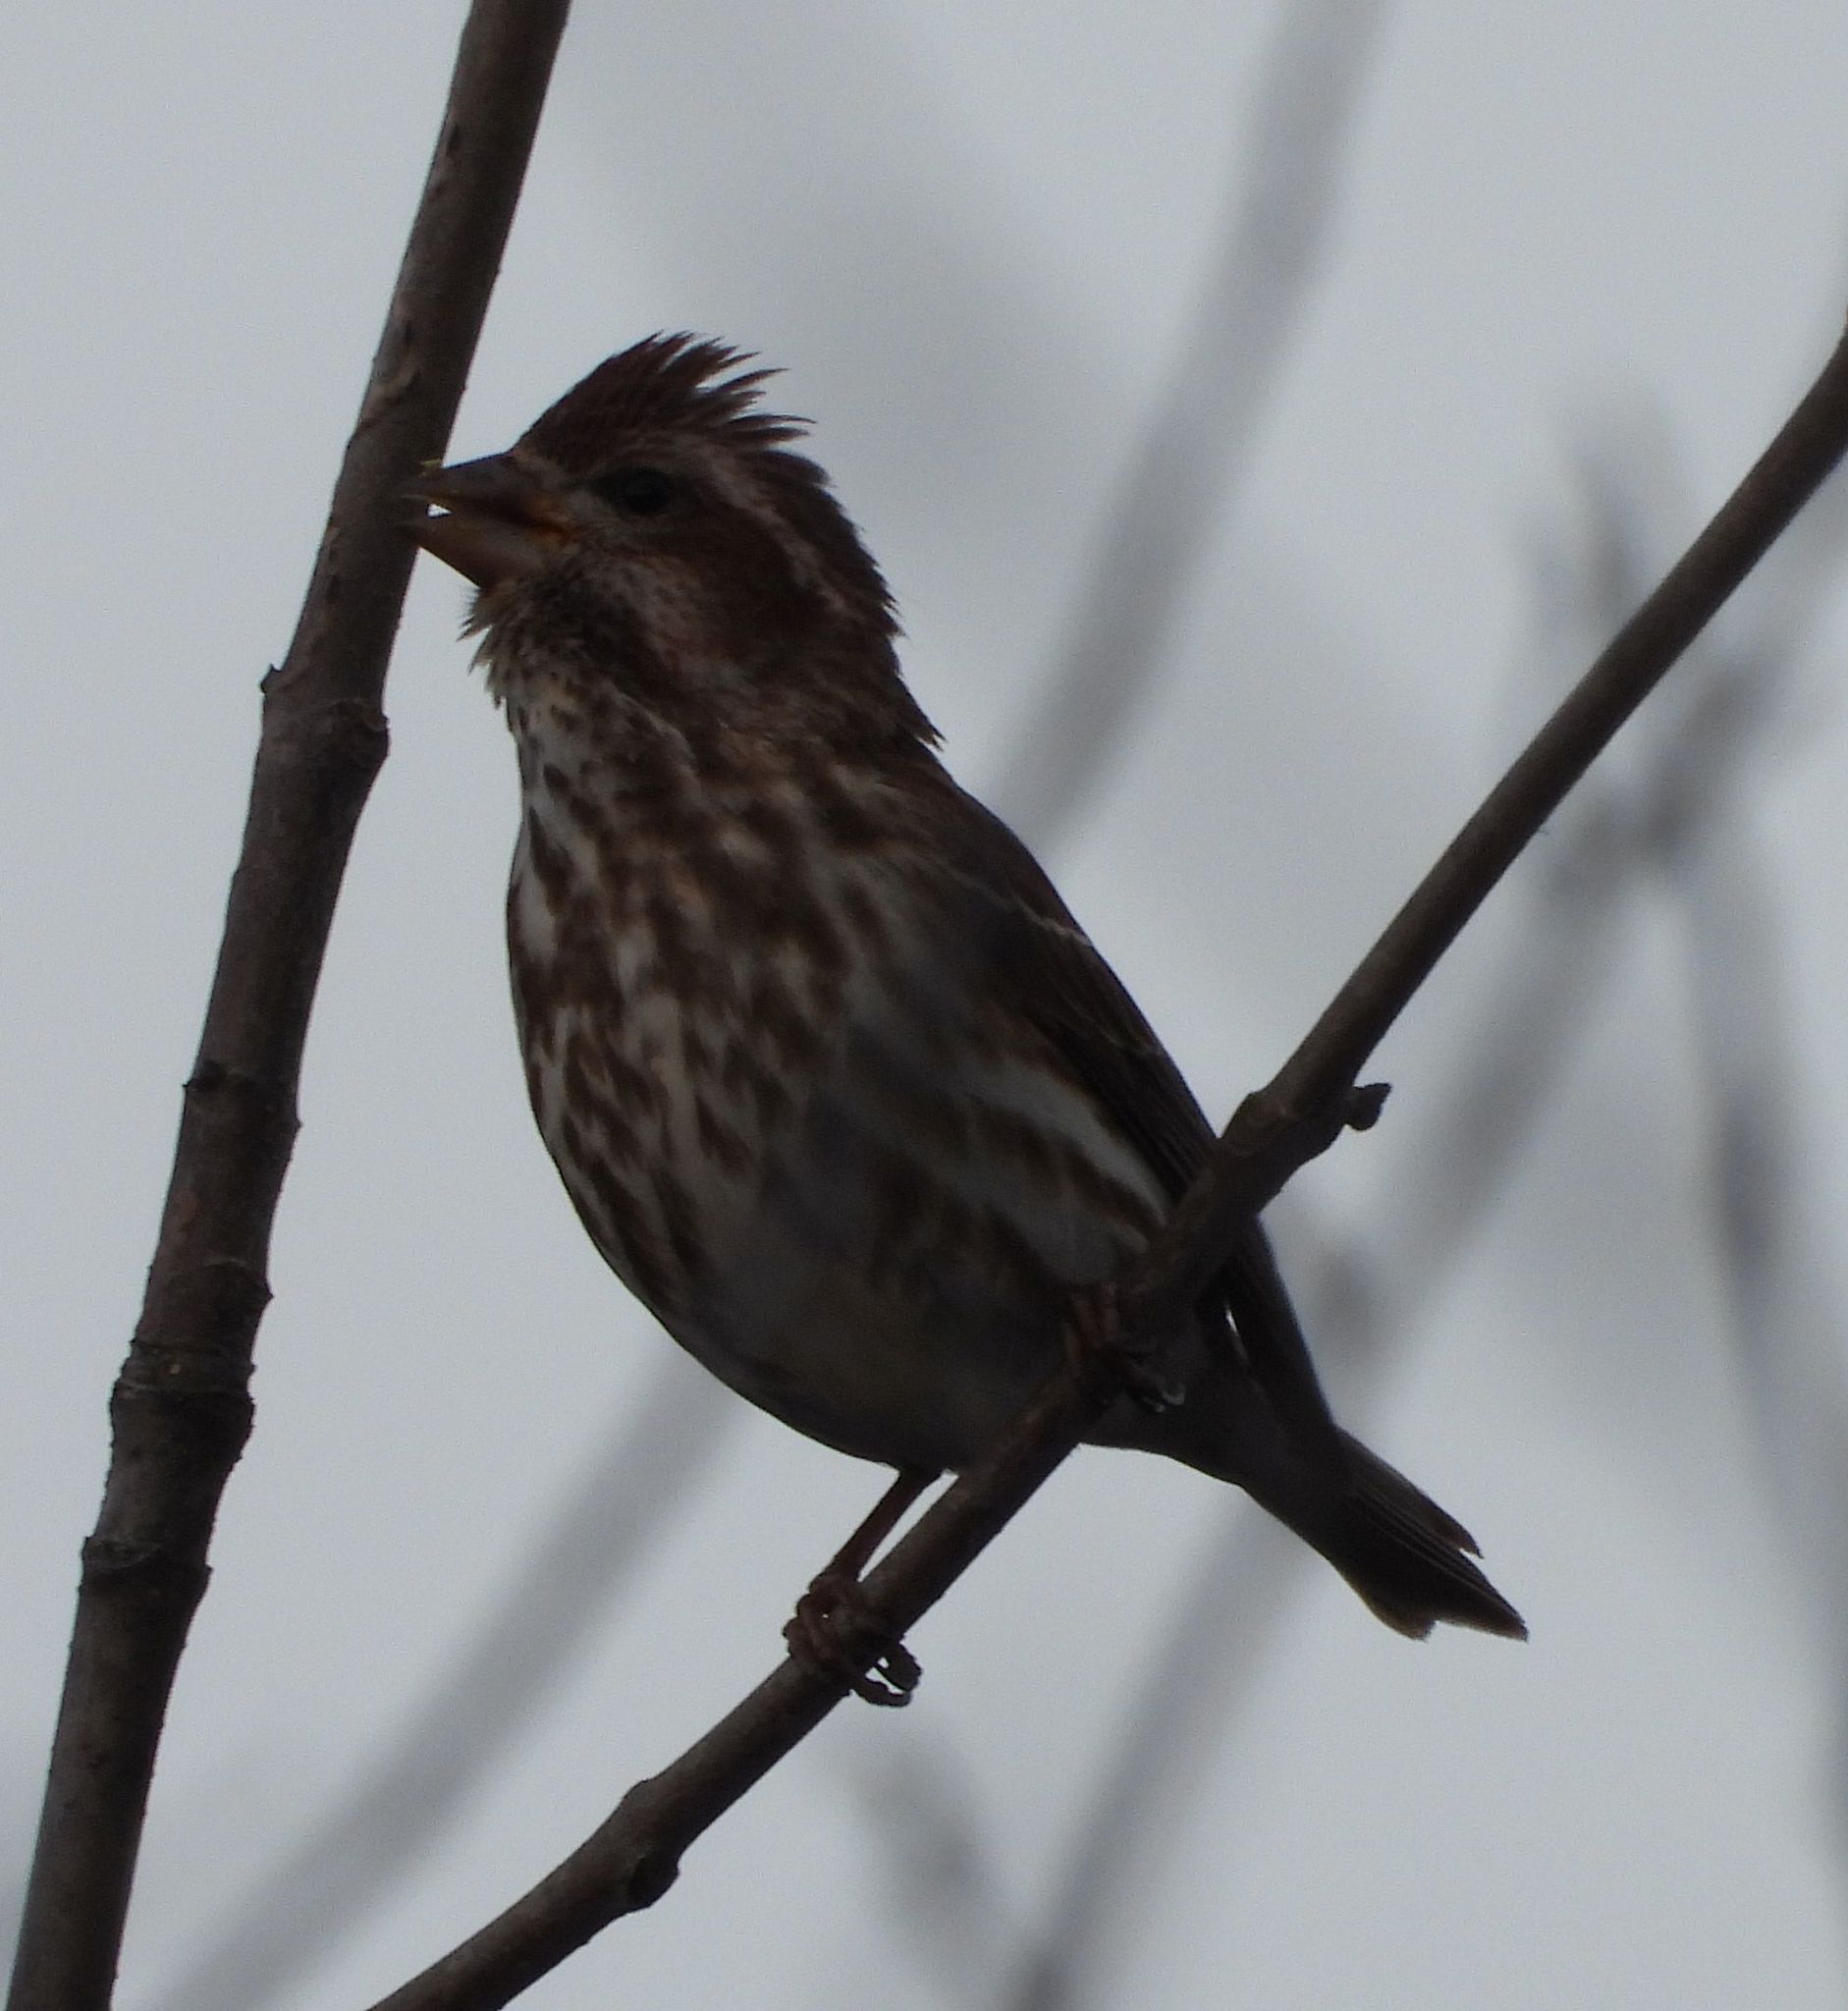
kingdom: Animalia
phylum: Chordata
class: Aves
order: Passeriformes
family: Fringillidae
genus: Haemorhous
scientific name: Haemorhous purpureus
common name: Purple finch
